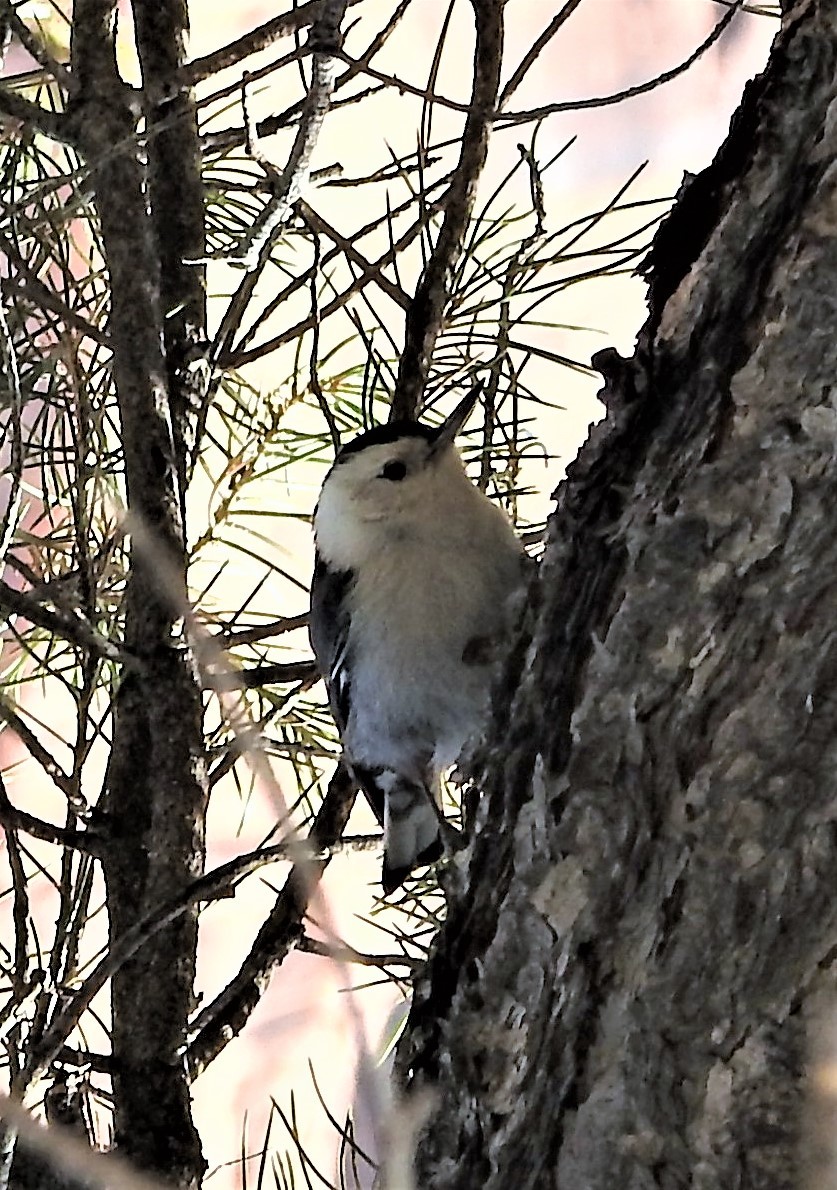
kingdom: Animalia
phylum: Chordata
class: Aves
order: Passeriformes
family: Sittidae
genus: Sitta
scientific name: Sitta carolinensis
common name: White-breasted nuthatch
